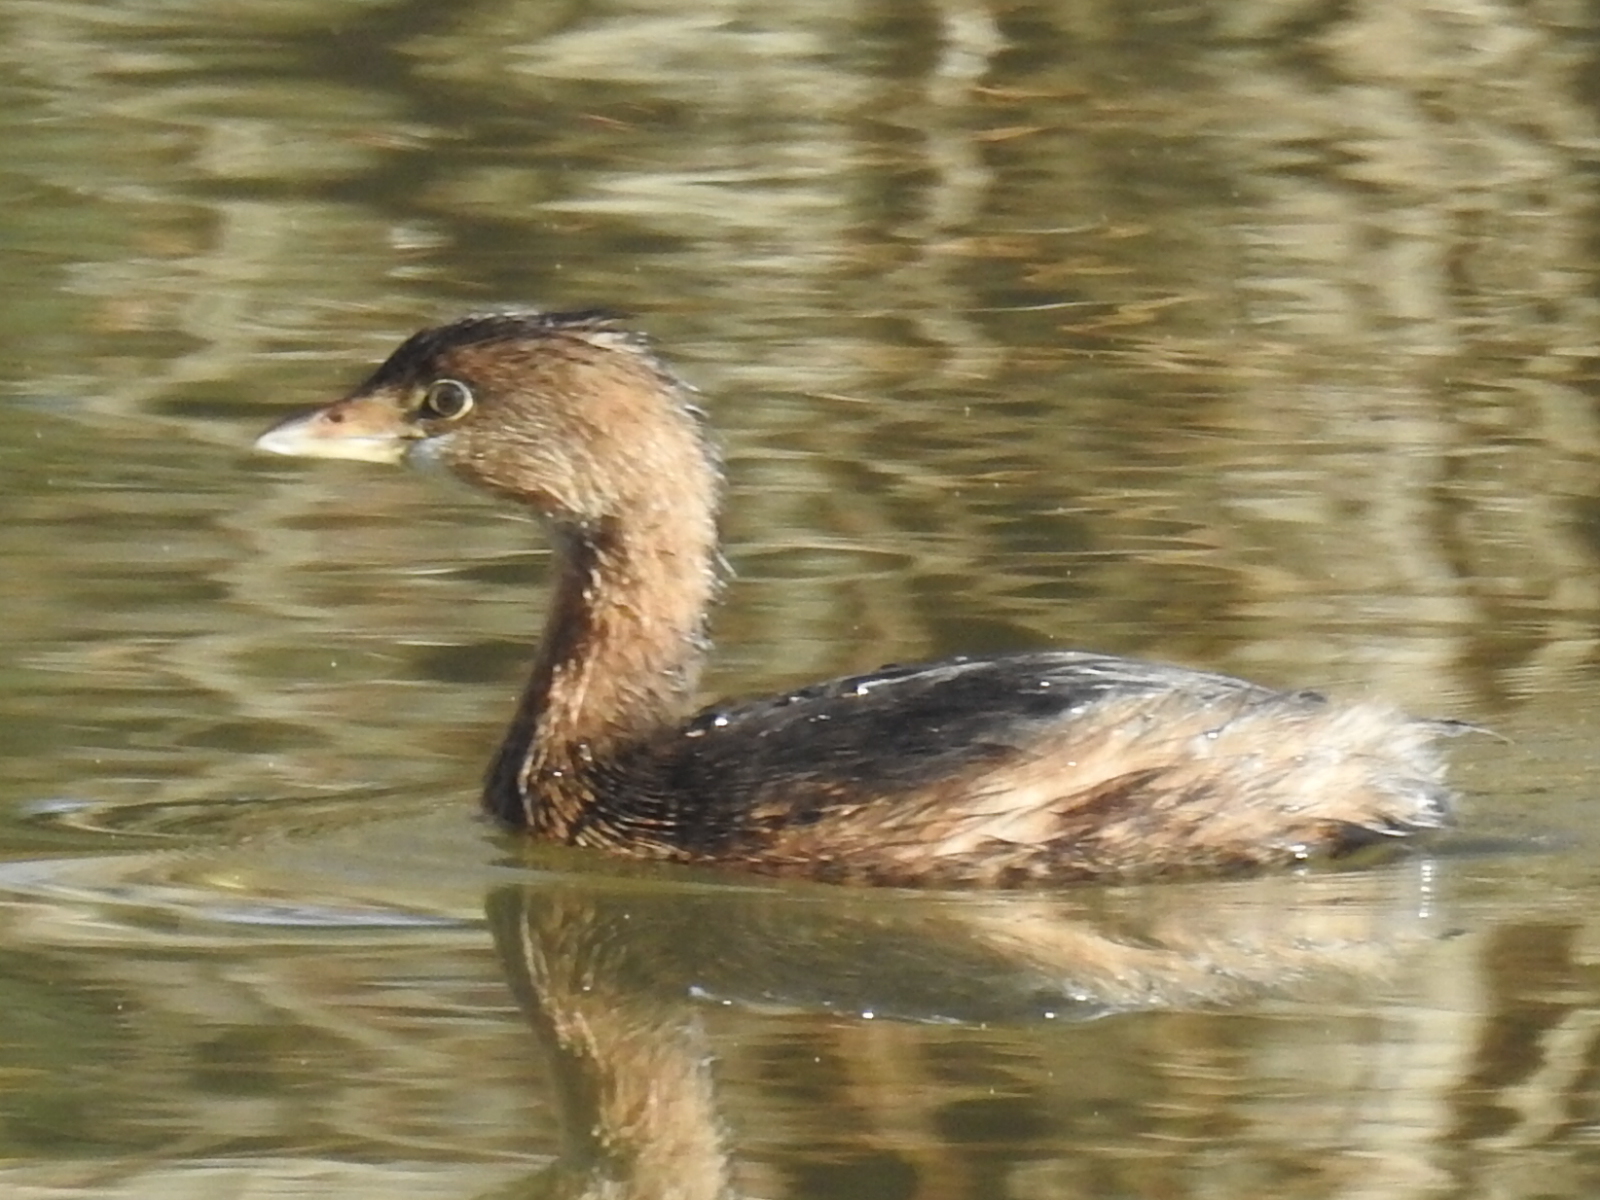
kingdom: Animalia
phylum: Chordata
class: Aves
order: Podicipediformes
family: Podicipedidae
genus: Podilymbus
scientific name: Podilymbus podiceps
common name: Pied-billed grebe
